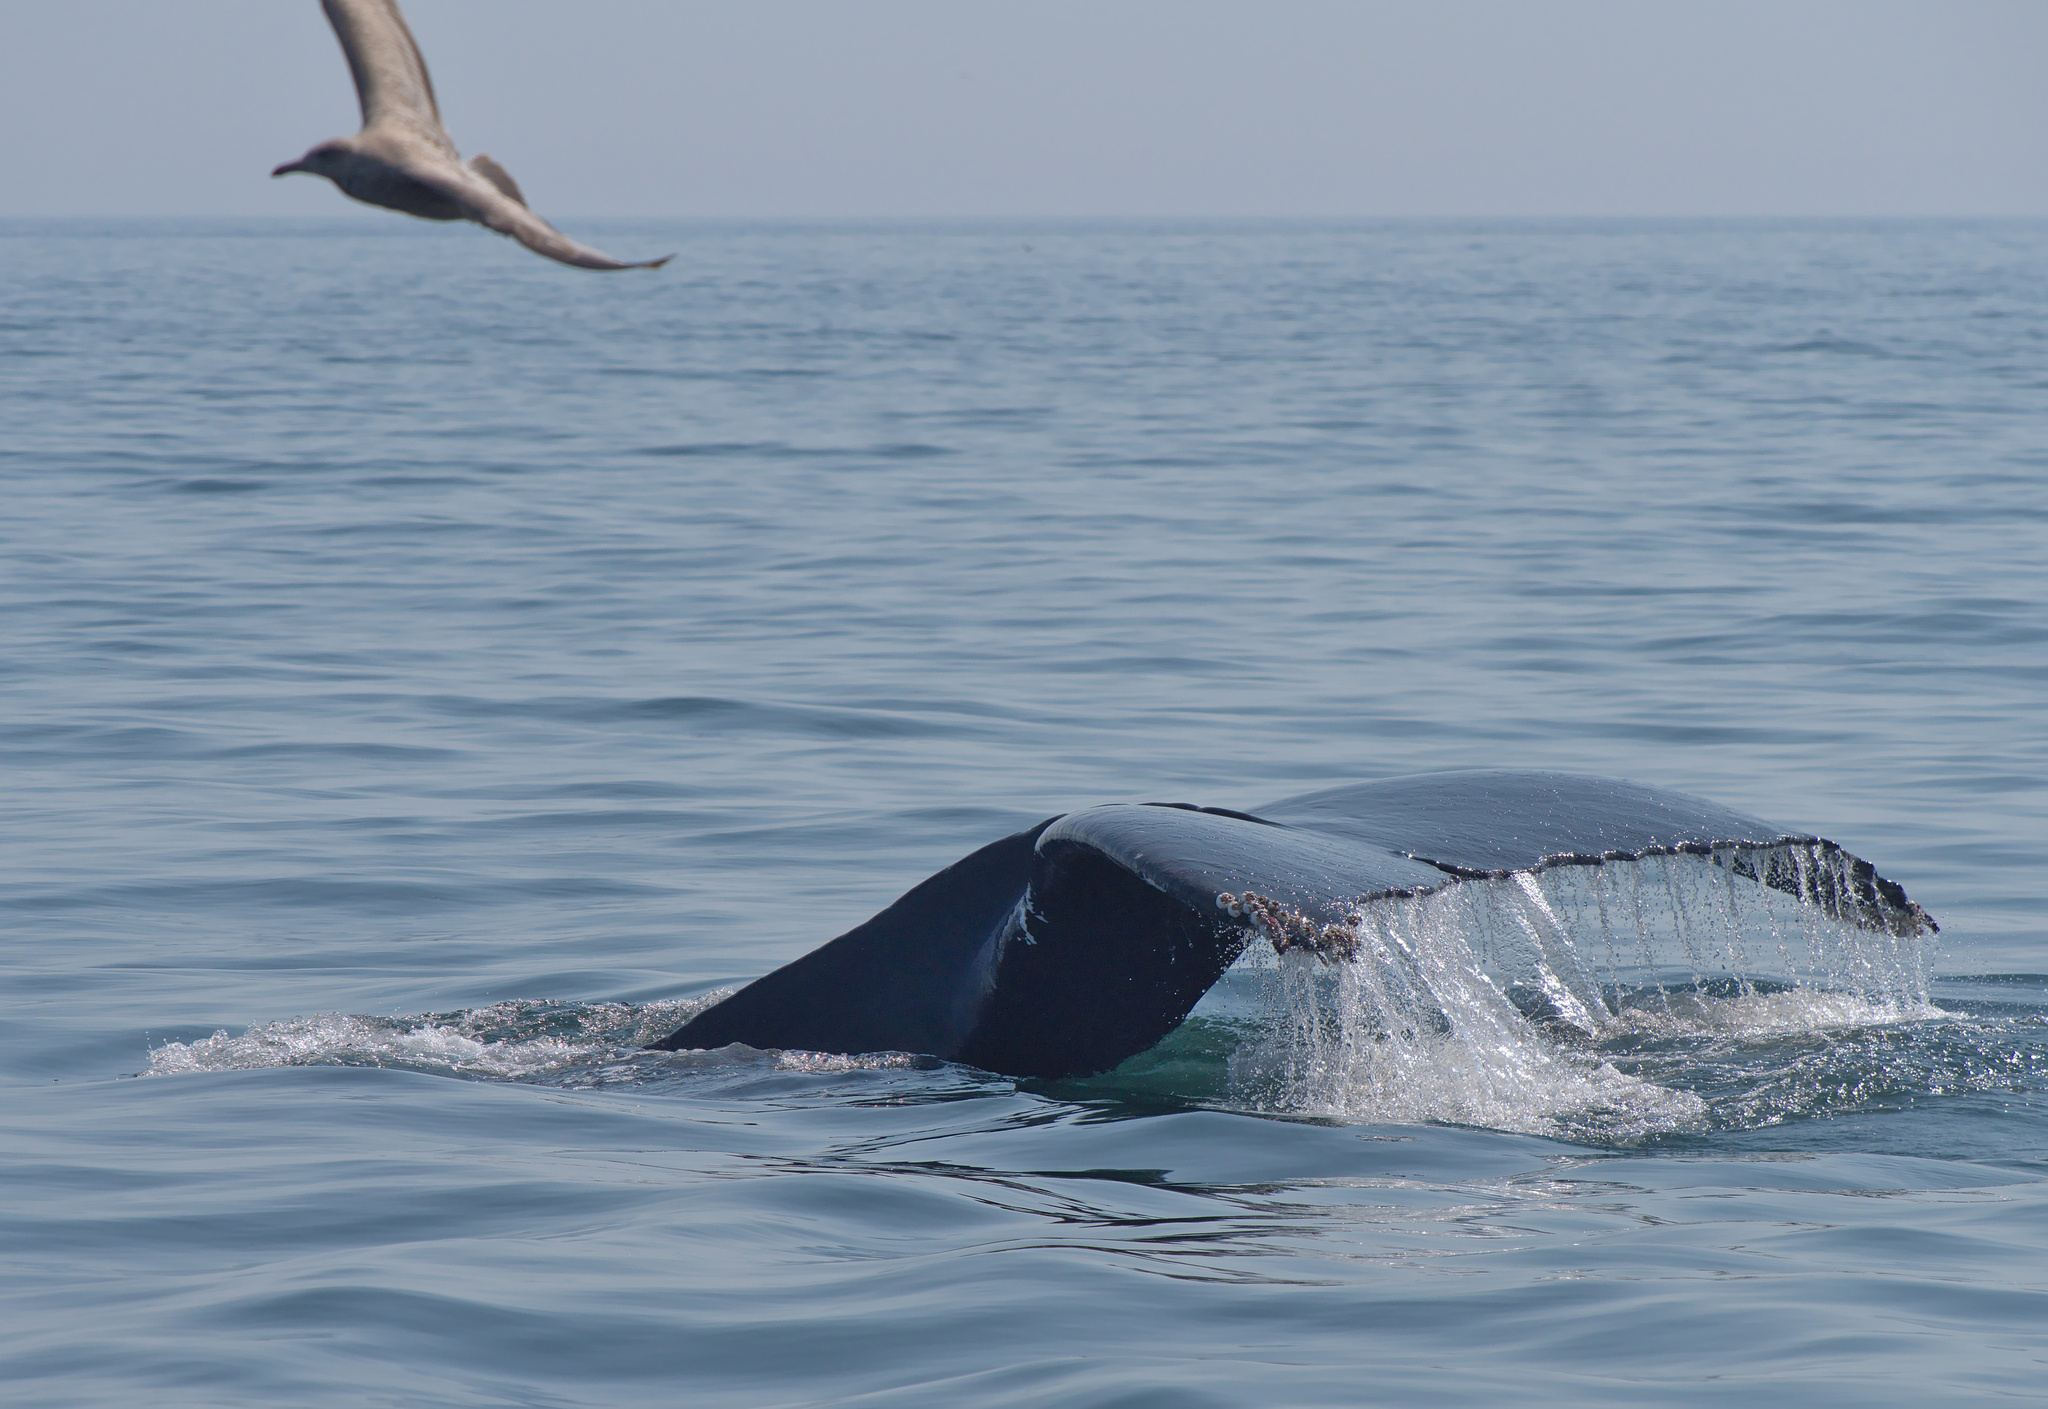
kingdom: Animalia
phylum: Chordata
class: Mammalia
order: Cetacea
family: Balaenopteridae
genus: Megaptera
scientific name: Megaptera novaeangliae
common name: Humpback whale
